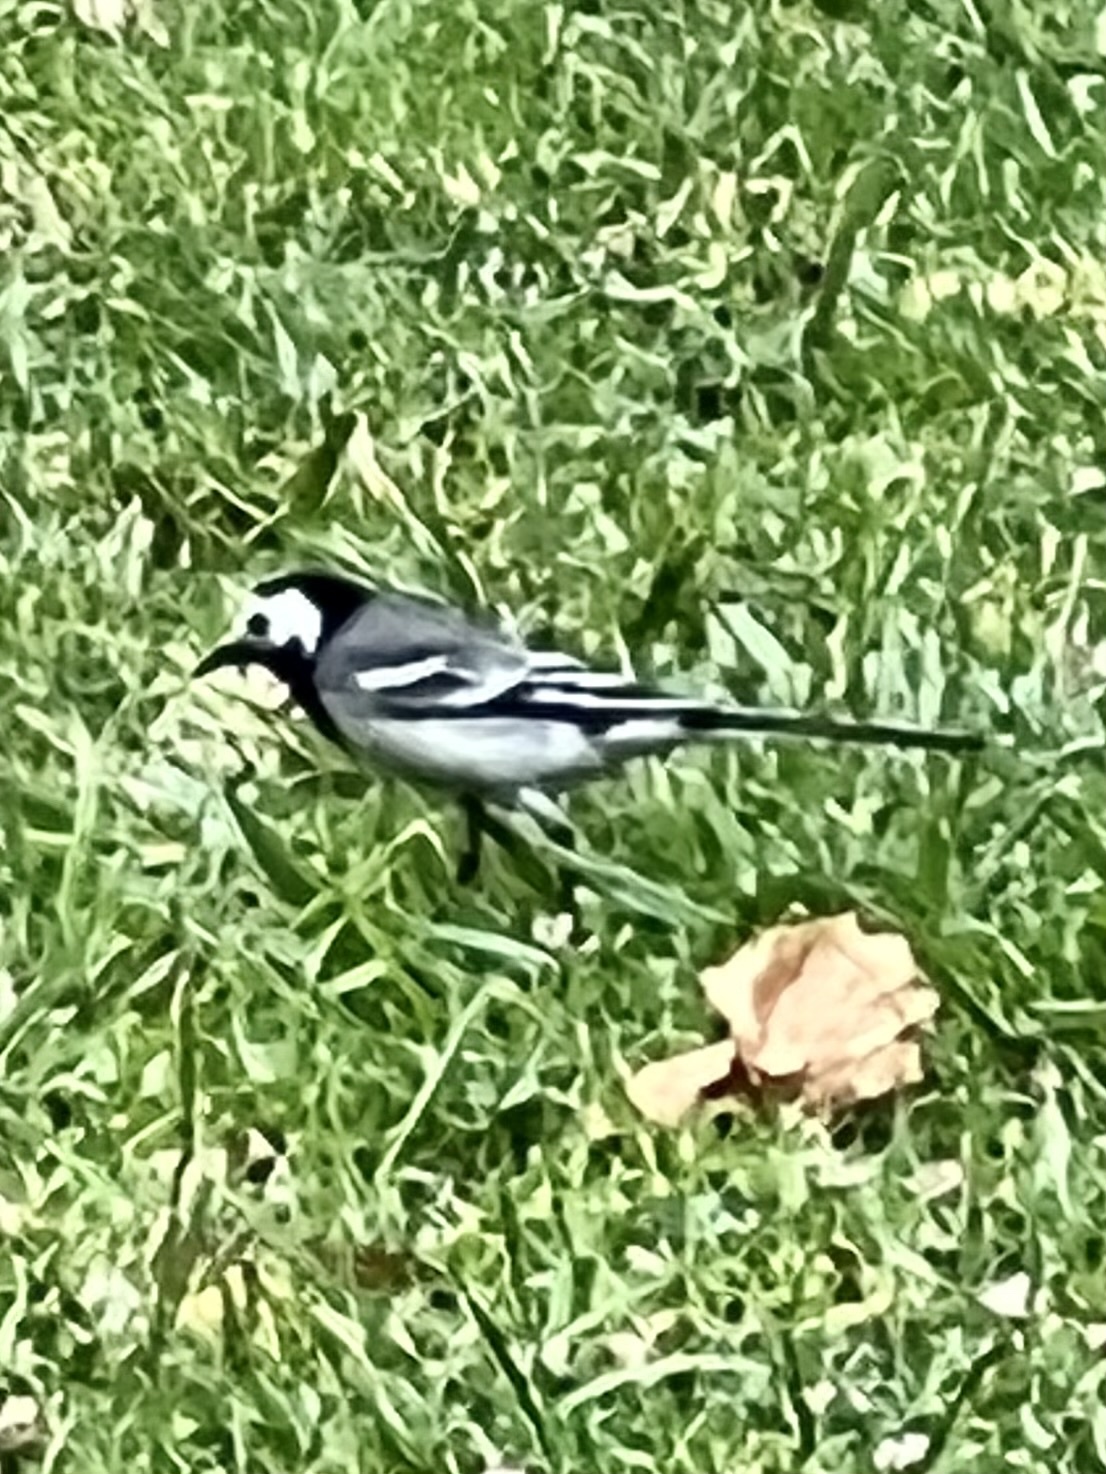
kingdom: Animalia
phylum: Chordata
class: Aves
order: Passeriformes
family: Motacillidae
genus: Motacilla
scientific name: Motacilla alba
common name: White wagtail
